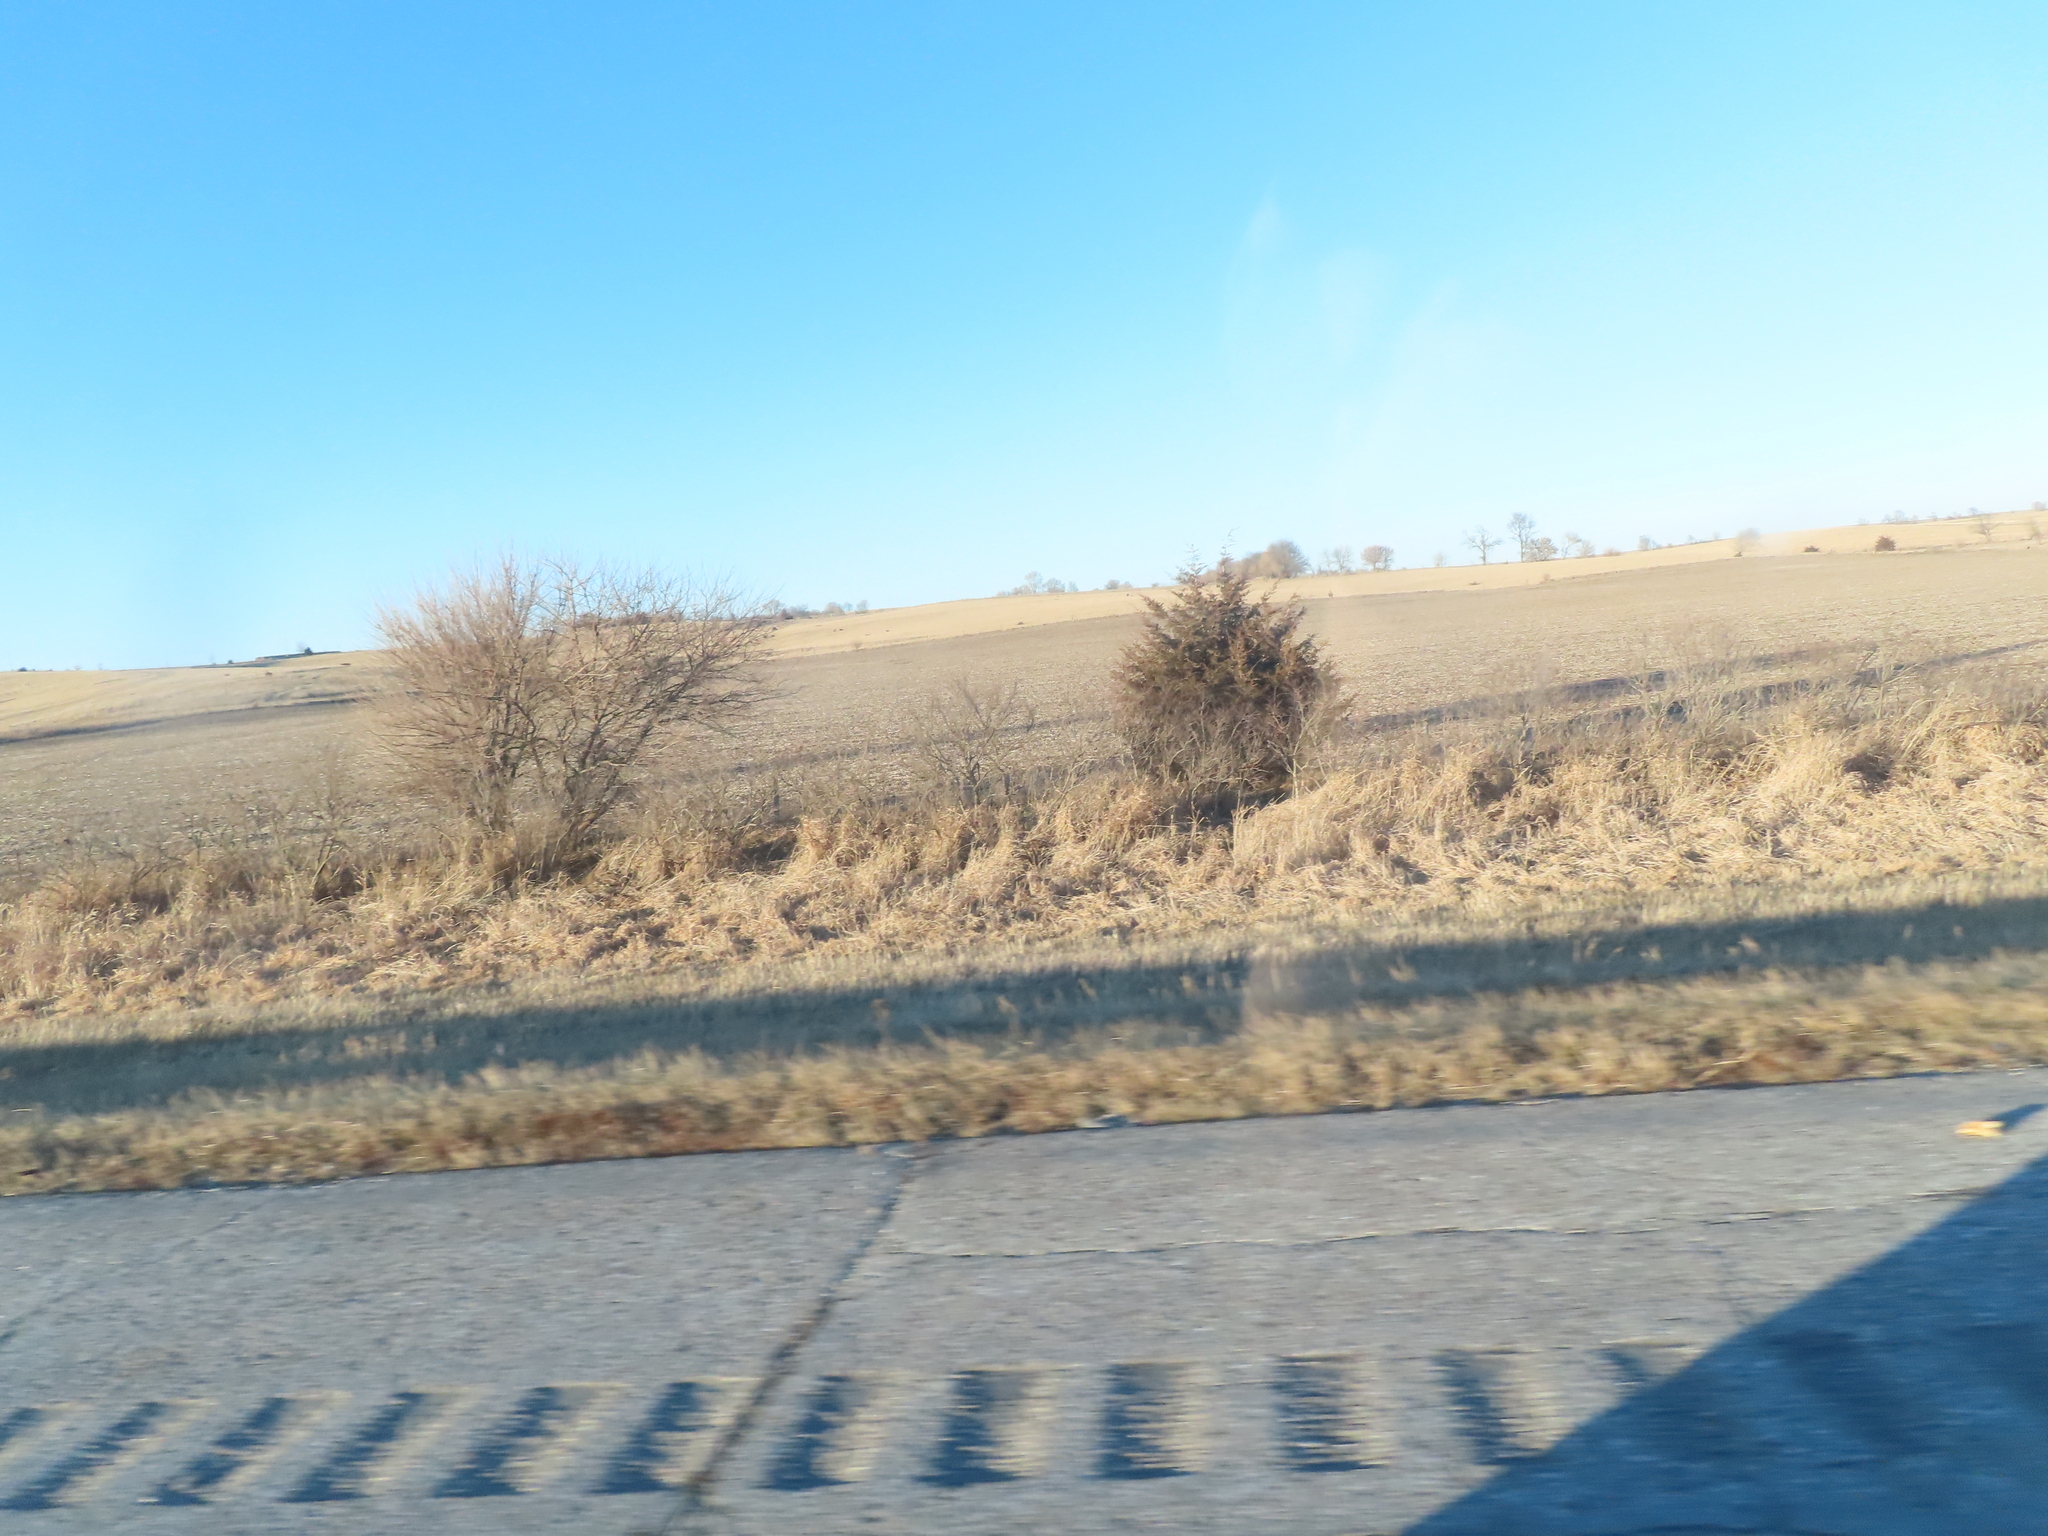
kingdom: Plantae
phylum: Tracheophyta
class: Pinopsida
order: Pinales
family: Cupressaceae
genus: Juniperus
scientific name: Juniperus virginiana
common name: Red juniper
